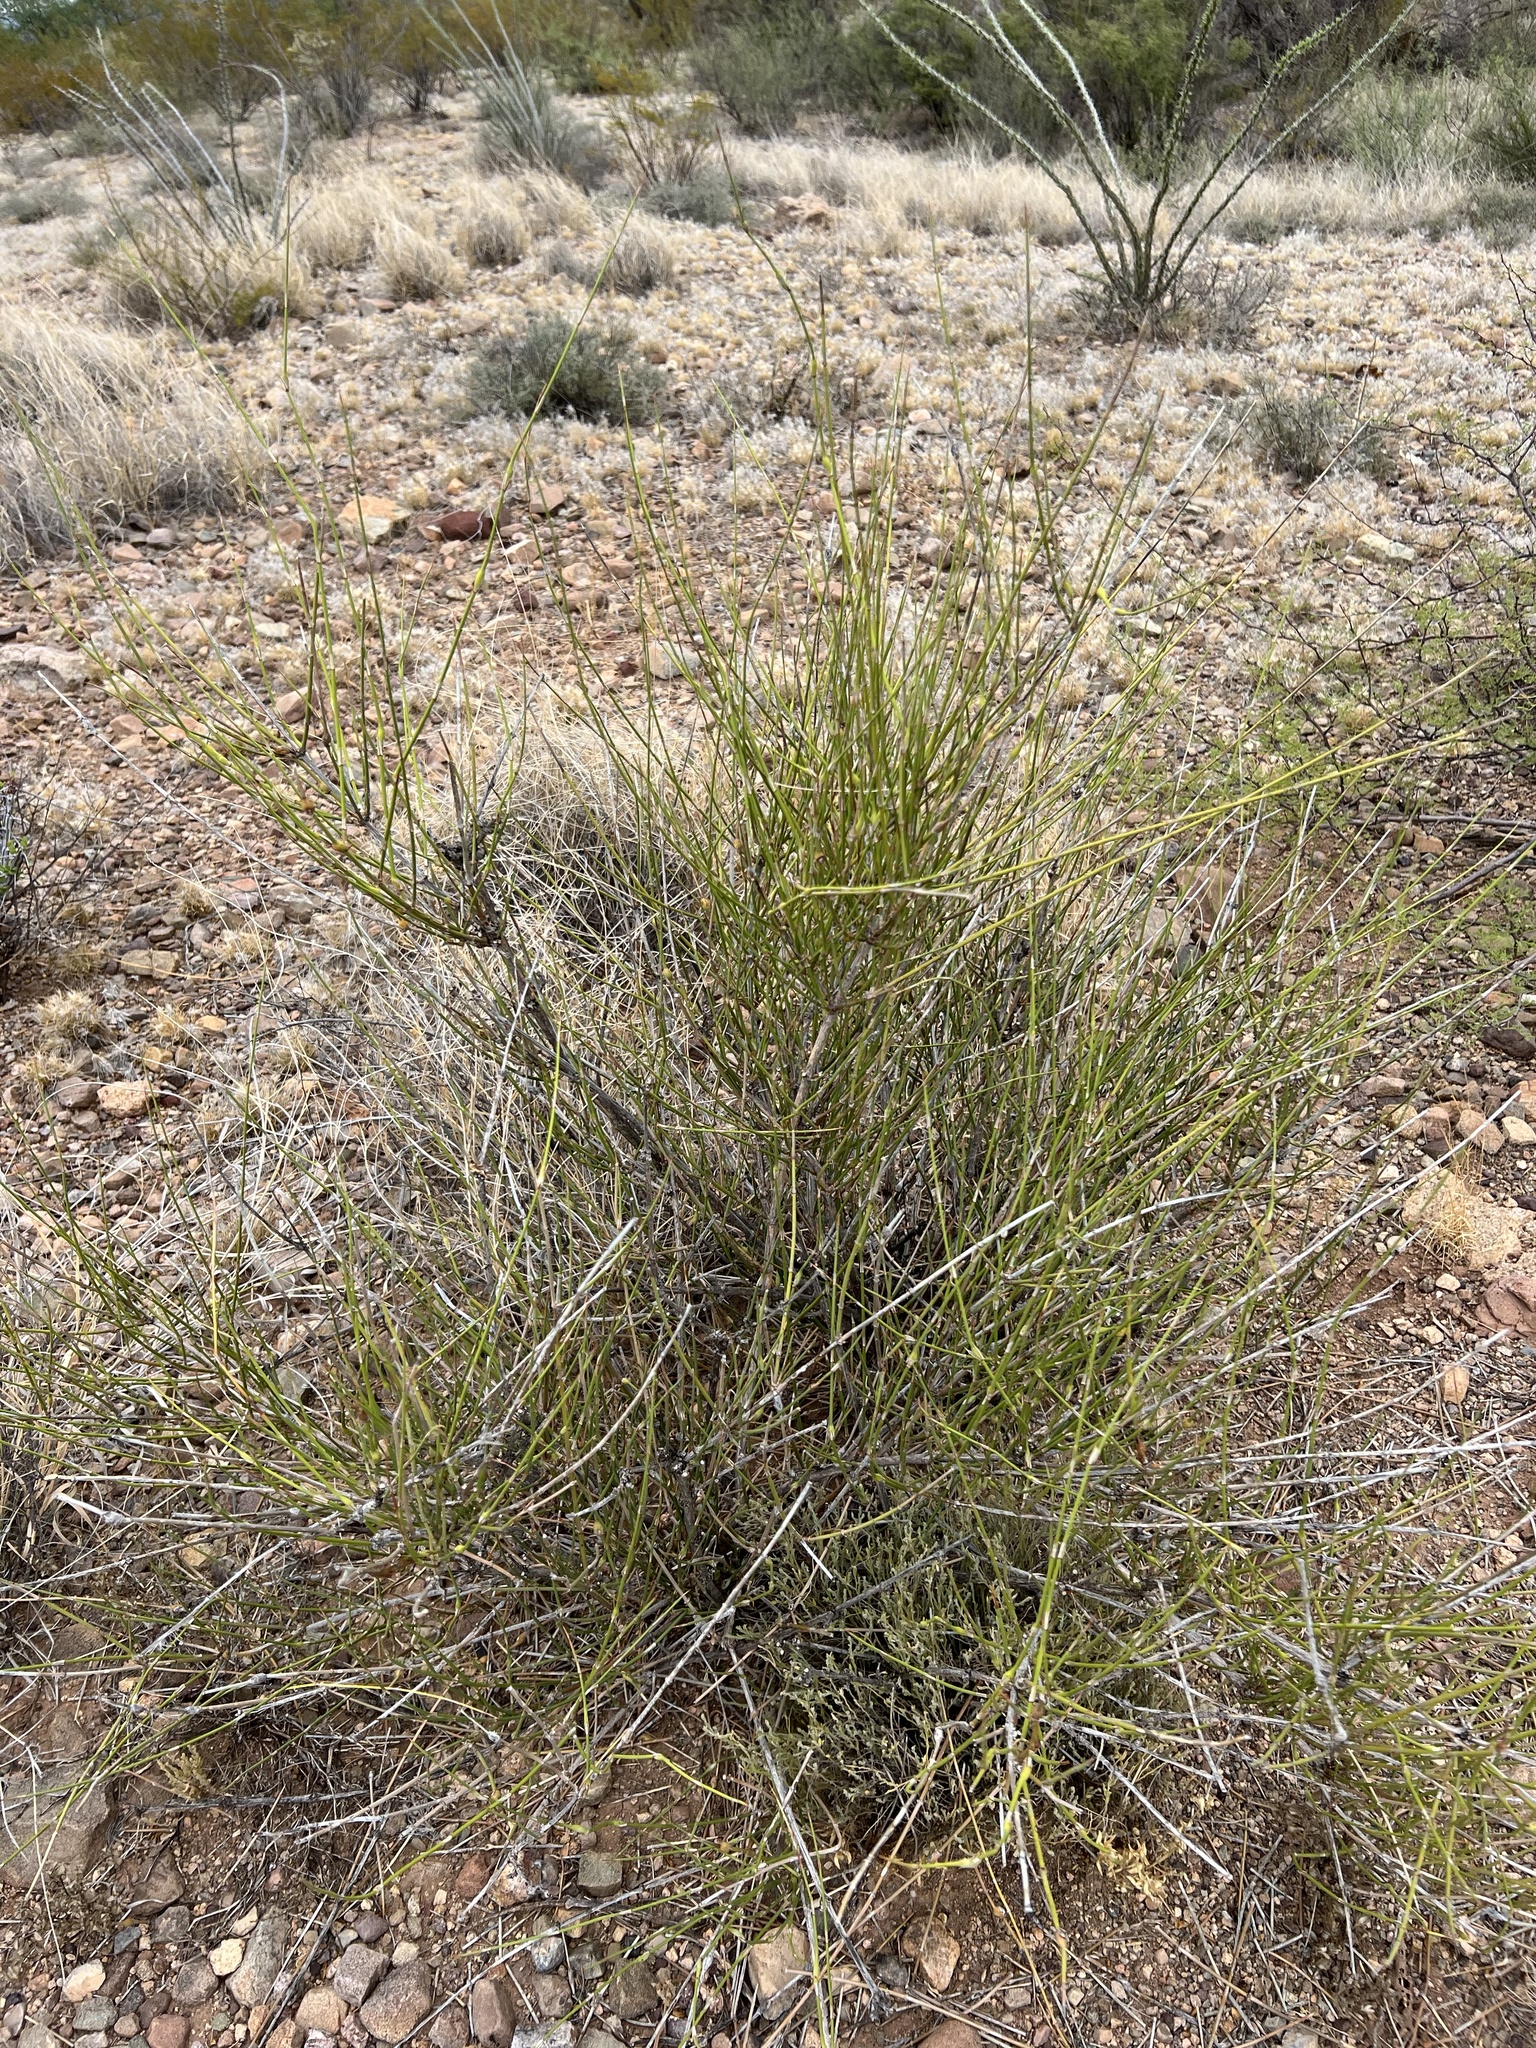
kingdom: Plantae
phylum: Tracheophyta
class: Gnetopsida
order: Ephedrales
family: Ephedraceae
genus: Ephedra
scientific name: Ephedra trifurca
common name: Mexican-tea
